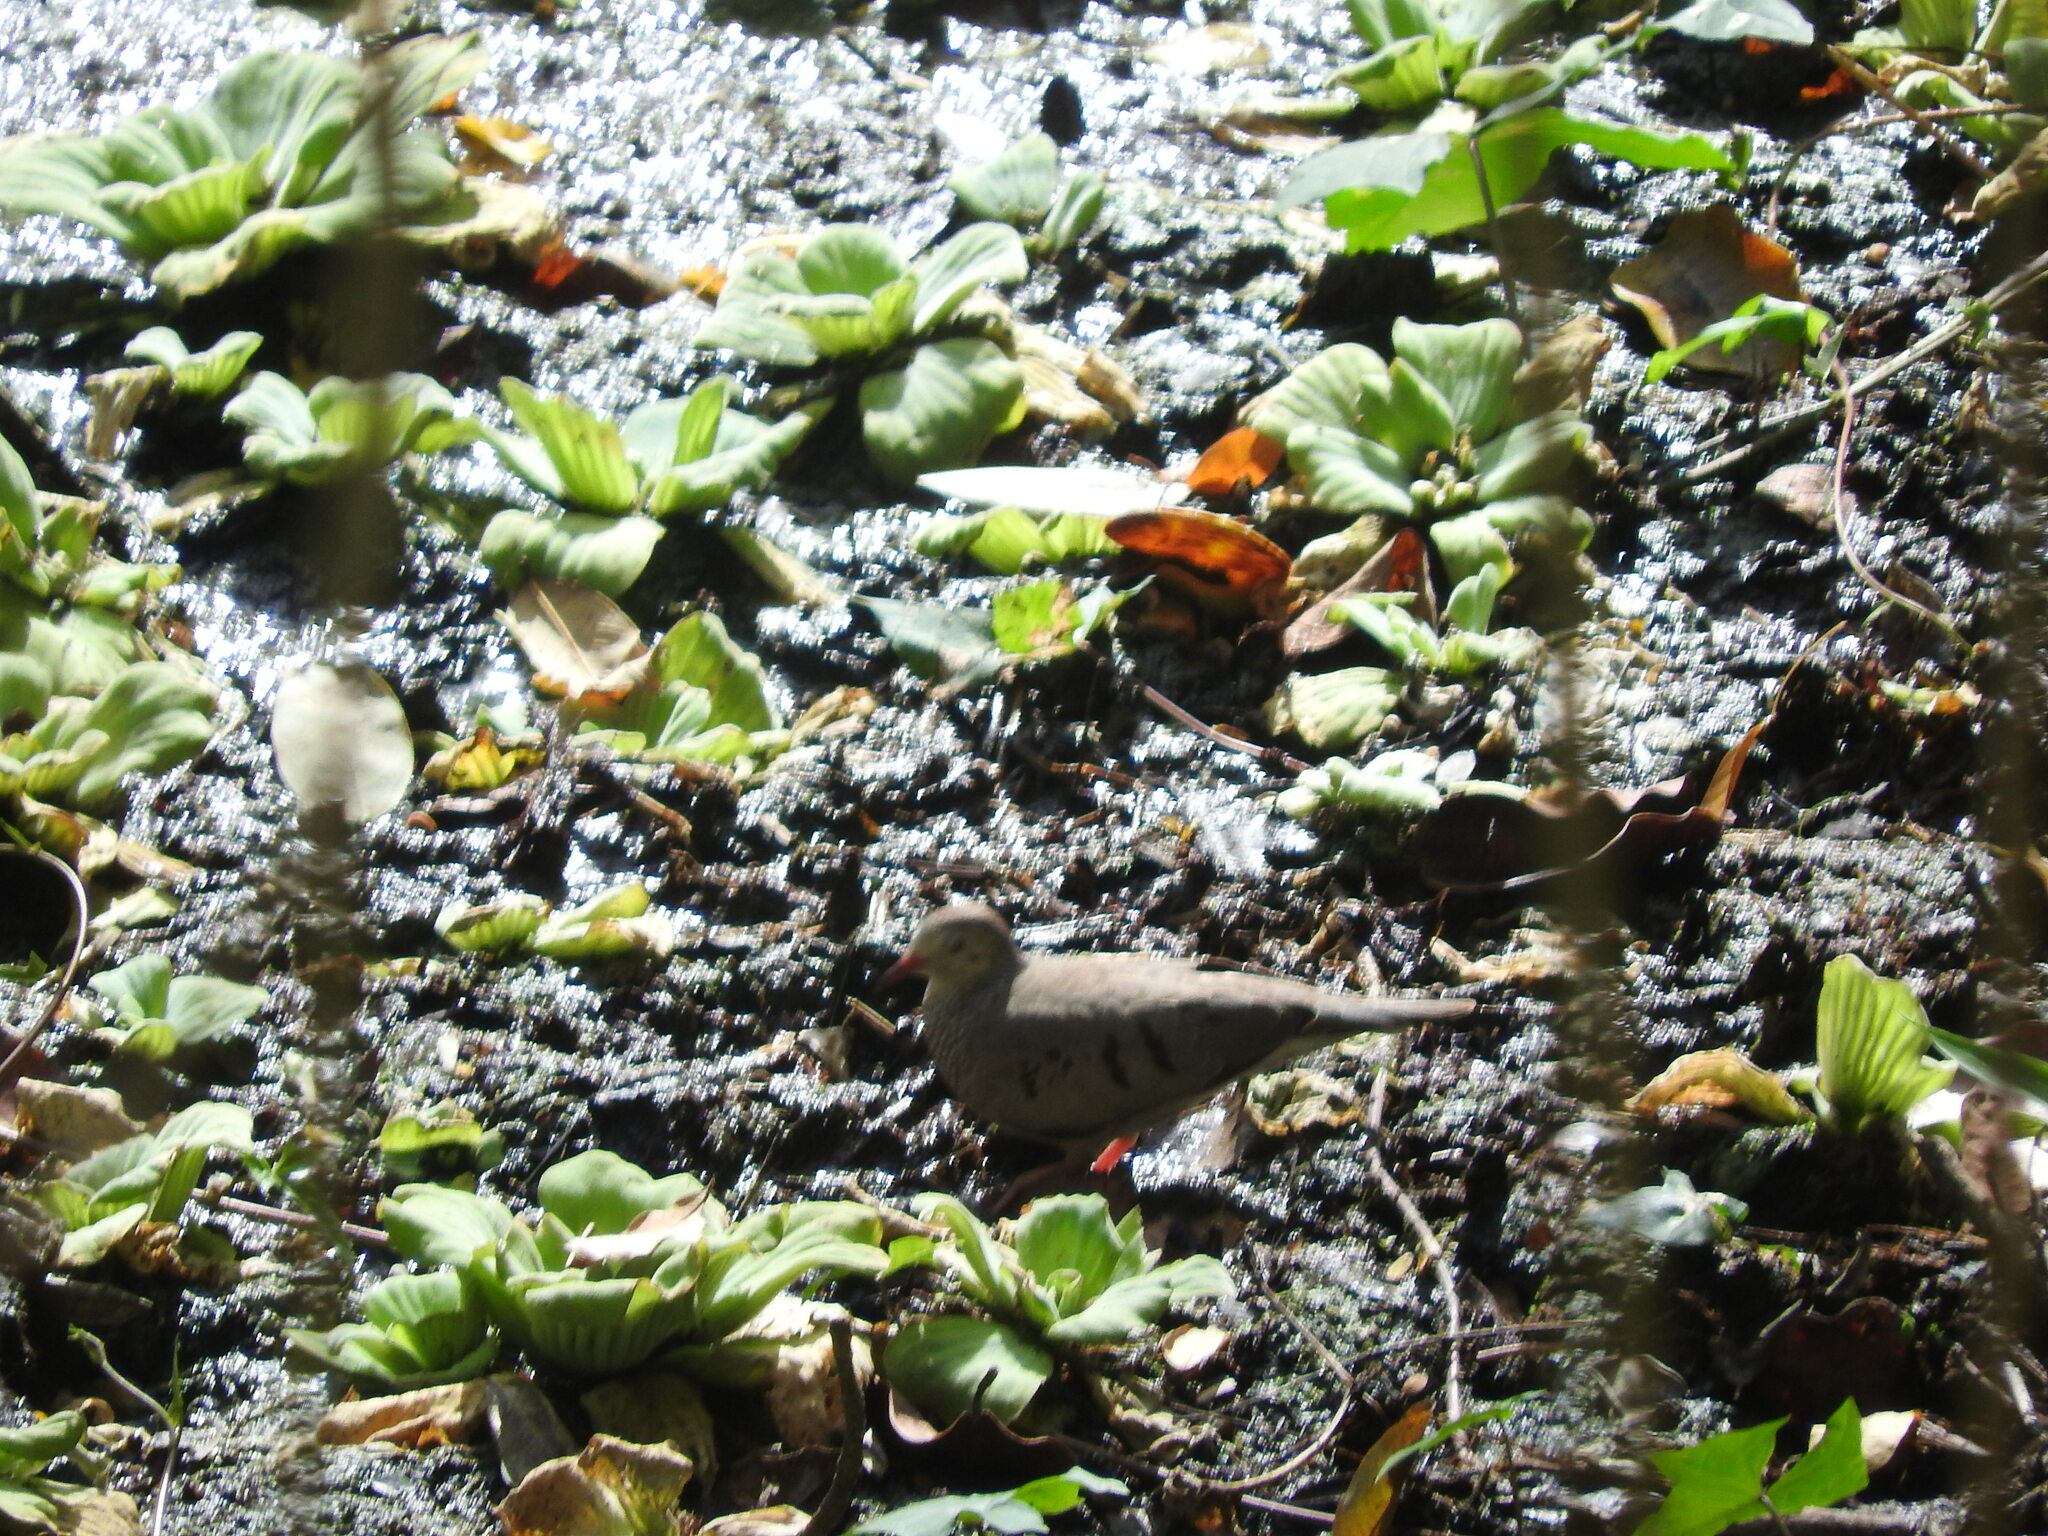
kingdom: Animalia
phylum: Chordata
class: Aves
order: Columbiformes
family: Columbidae
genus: Columbina
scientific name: Columbina passerina
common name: Common ground-dove
